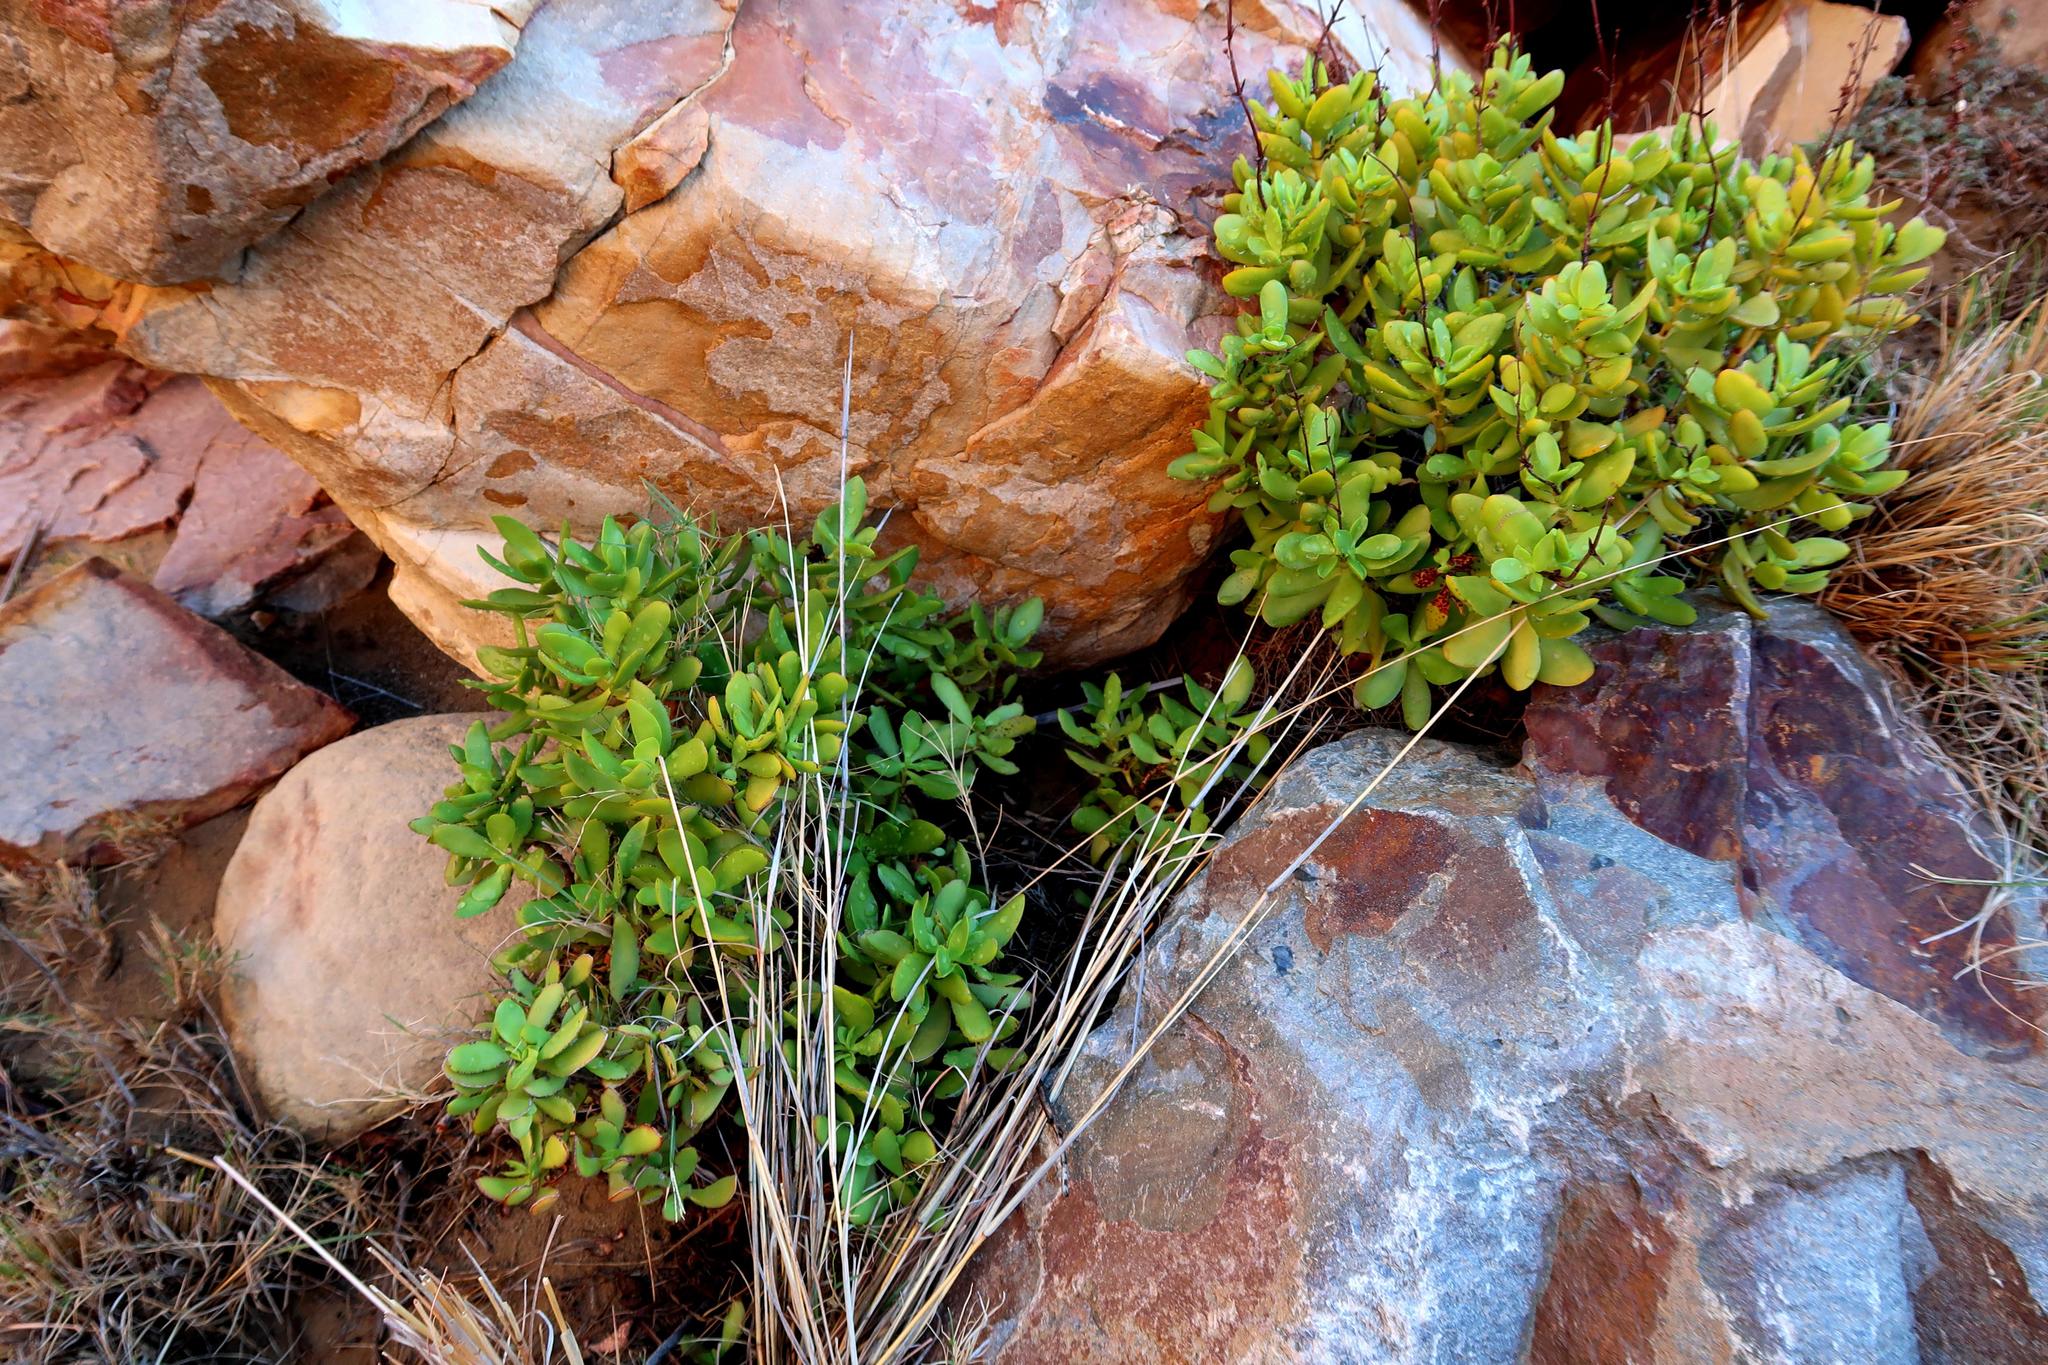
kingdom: Plantae
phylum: Tracheophyta
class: Magnoliopsida
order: Saxifragales
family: Crassulaceae
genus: Crassula
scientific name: Crassula cultrata
